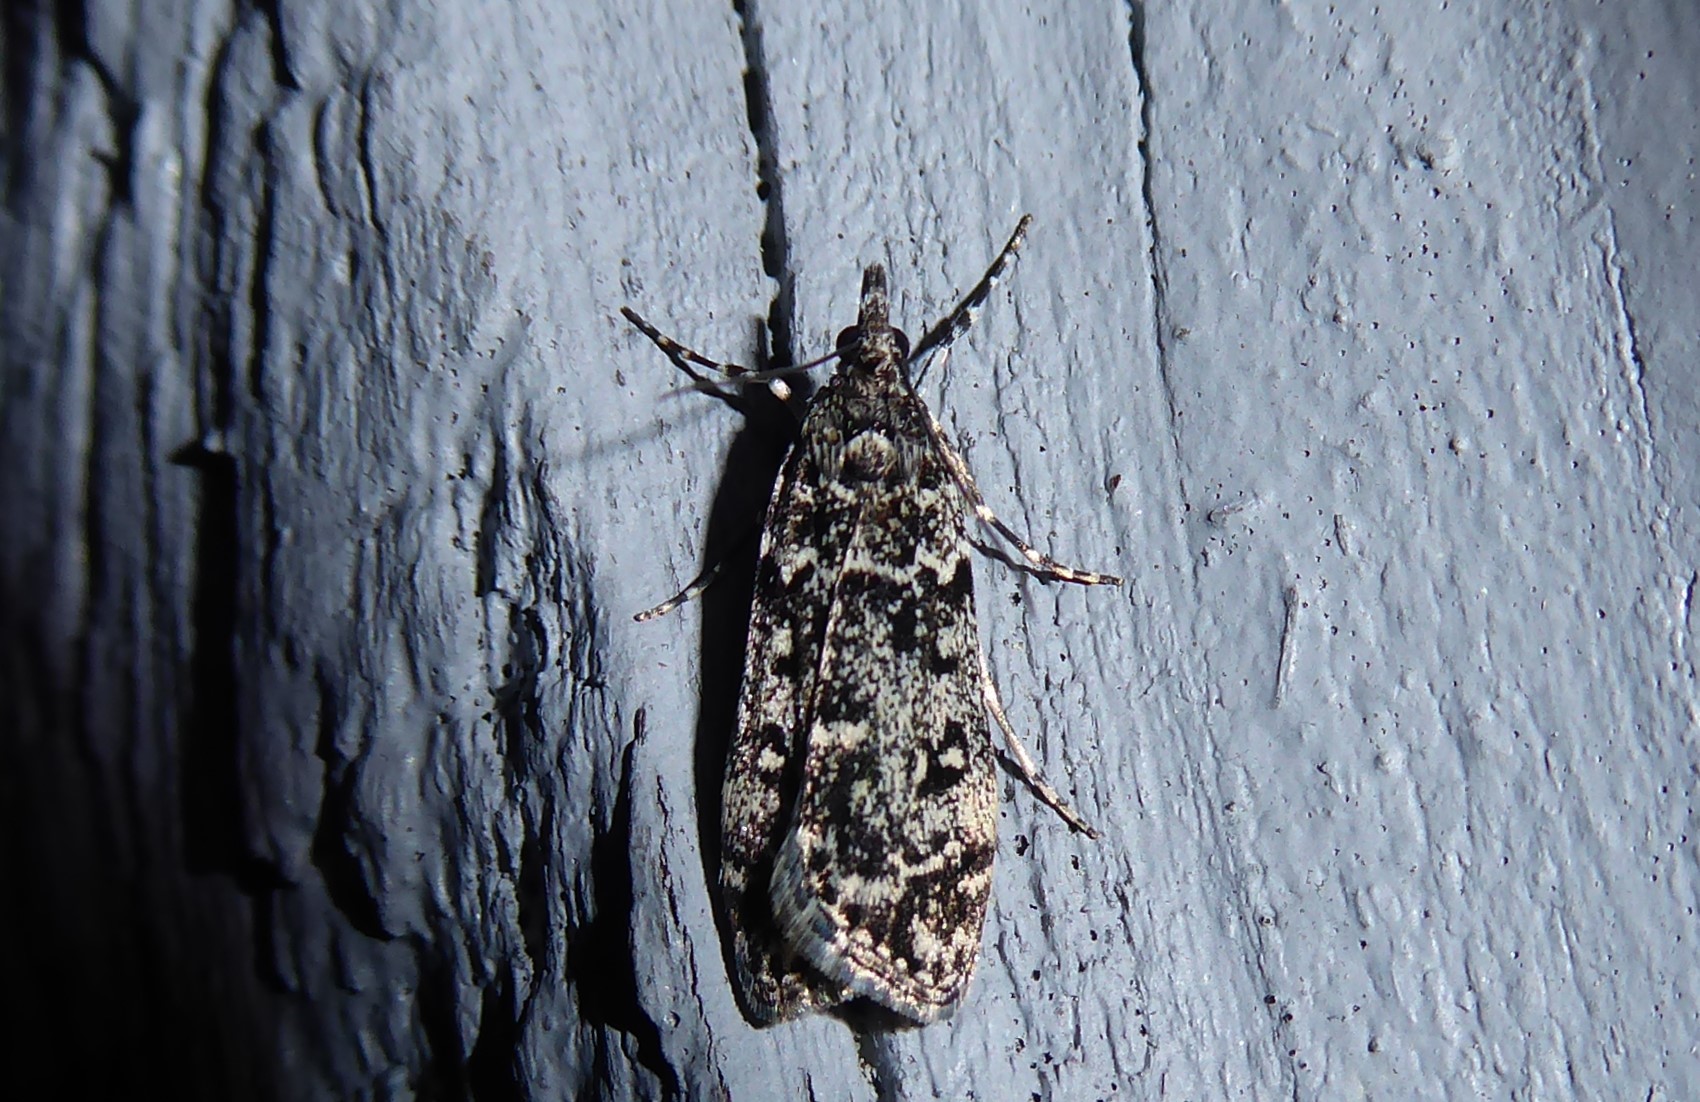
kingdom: Animalia
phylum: Arthropoda
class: Insecta
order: Lepidoptera
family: Crambidae
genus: Eudonia
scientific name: Eudonia philerga
